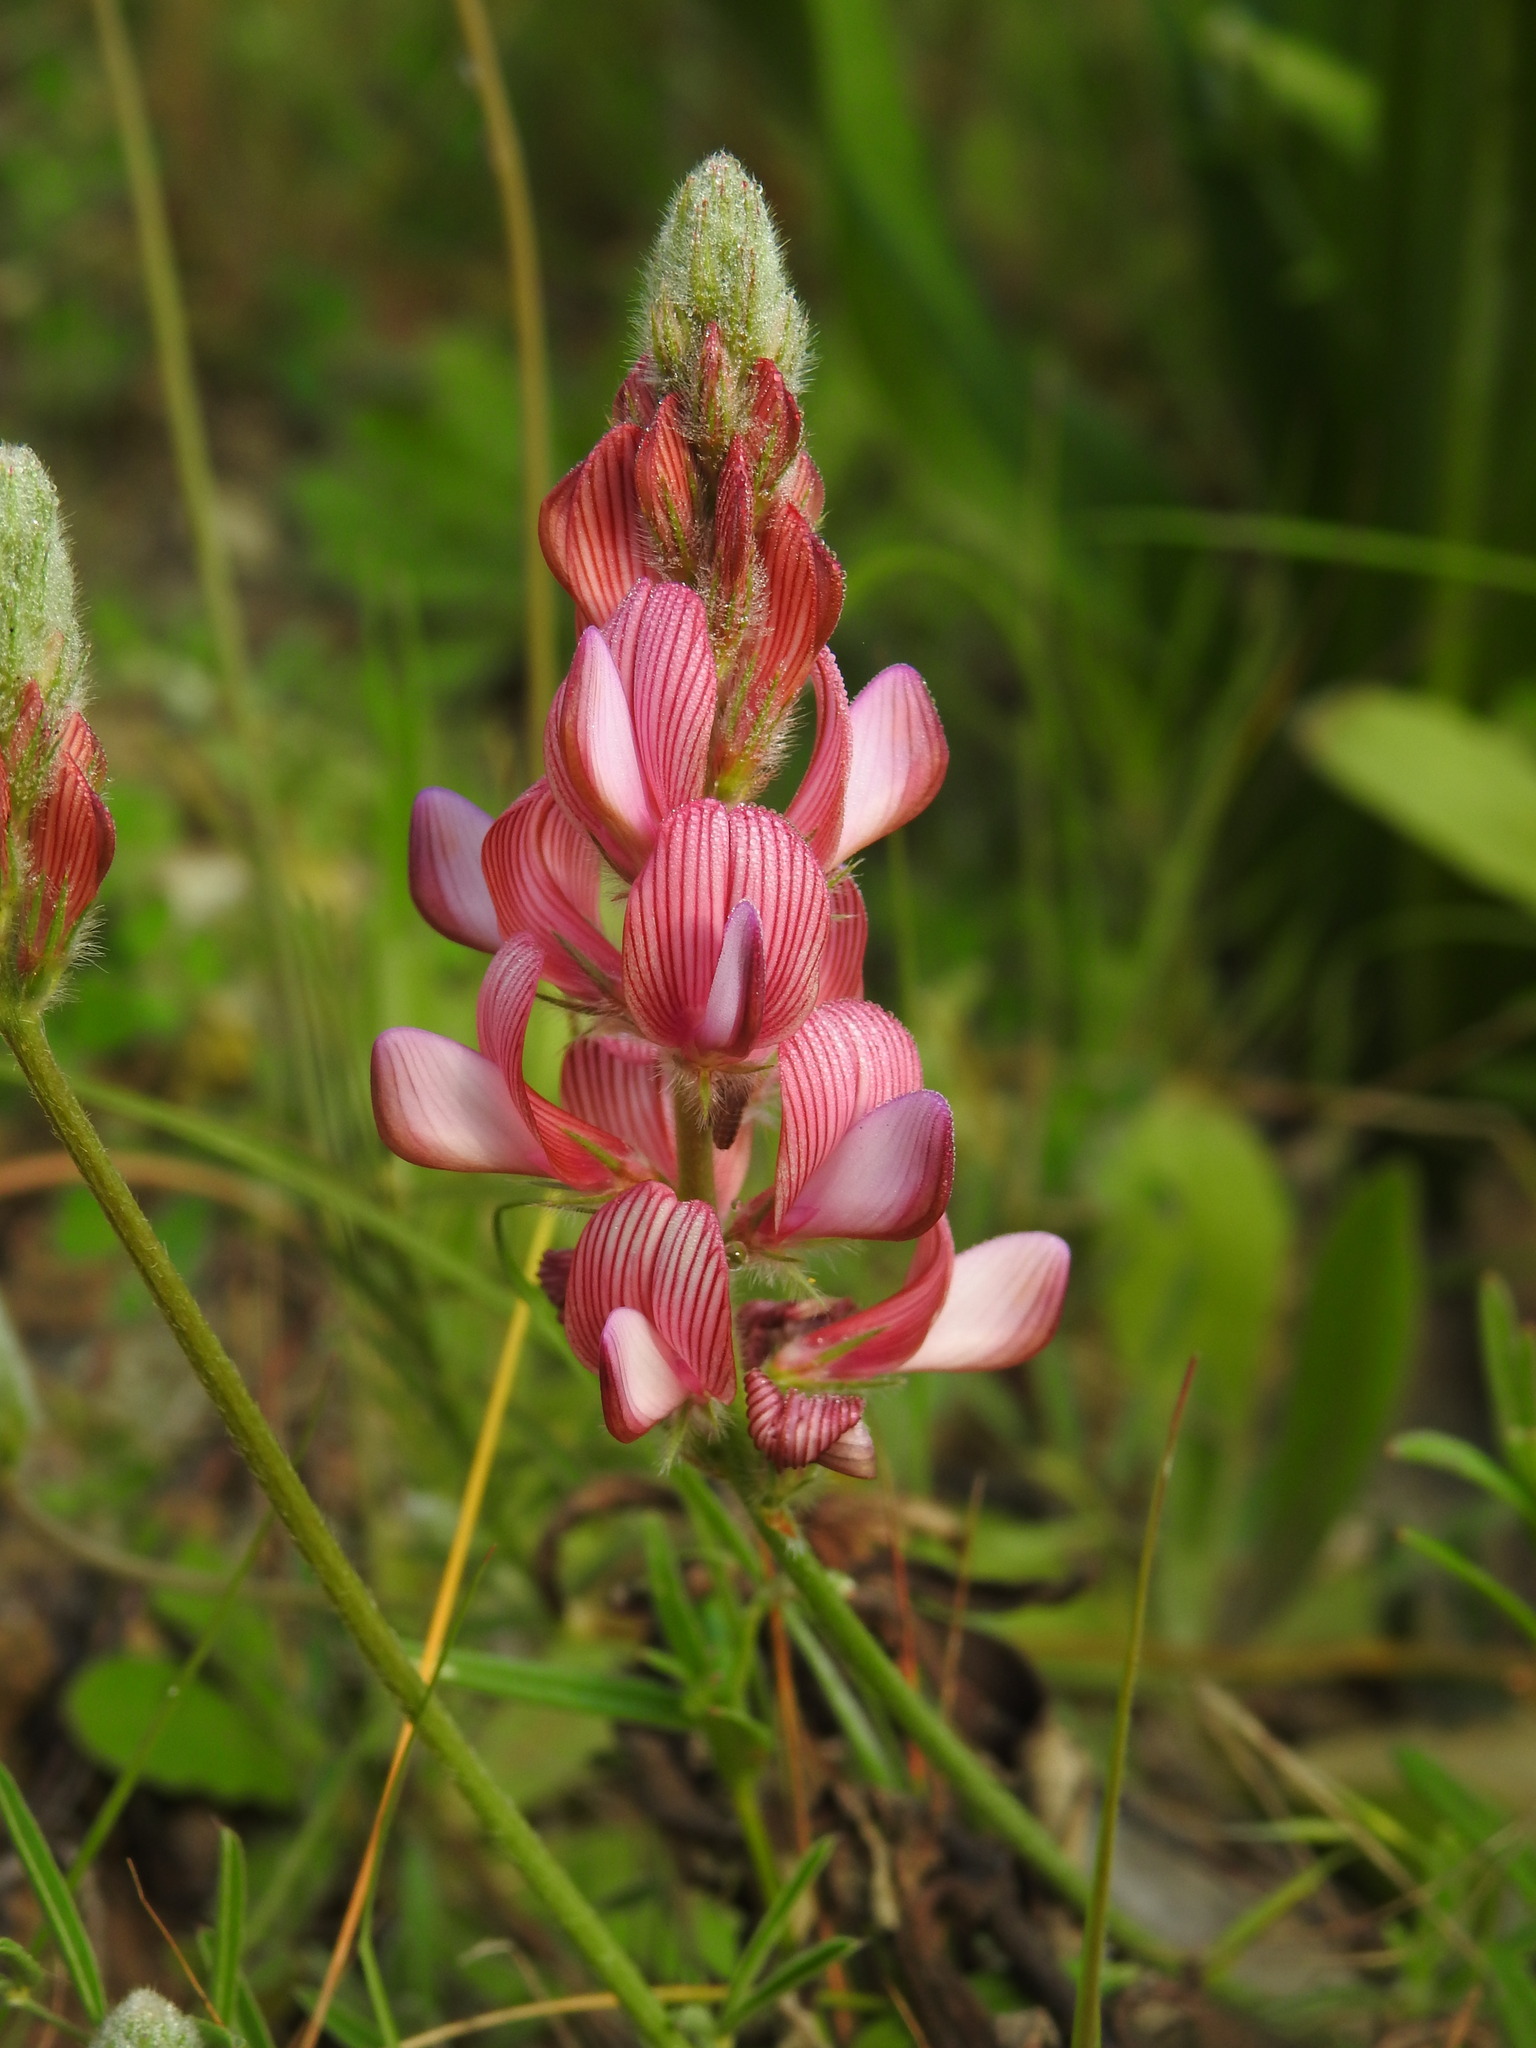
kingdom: Plantae
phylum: Tracheophyta
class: Magnoliopsida
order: Fabales
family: Fabaceae
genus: Onobrychis
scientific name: Onobrychis humilis
